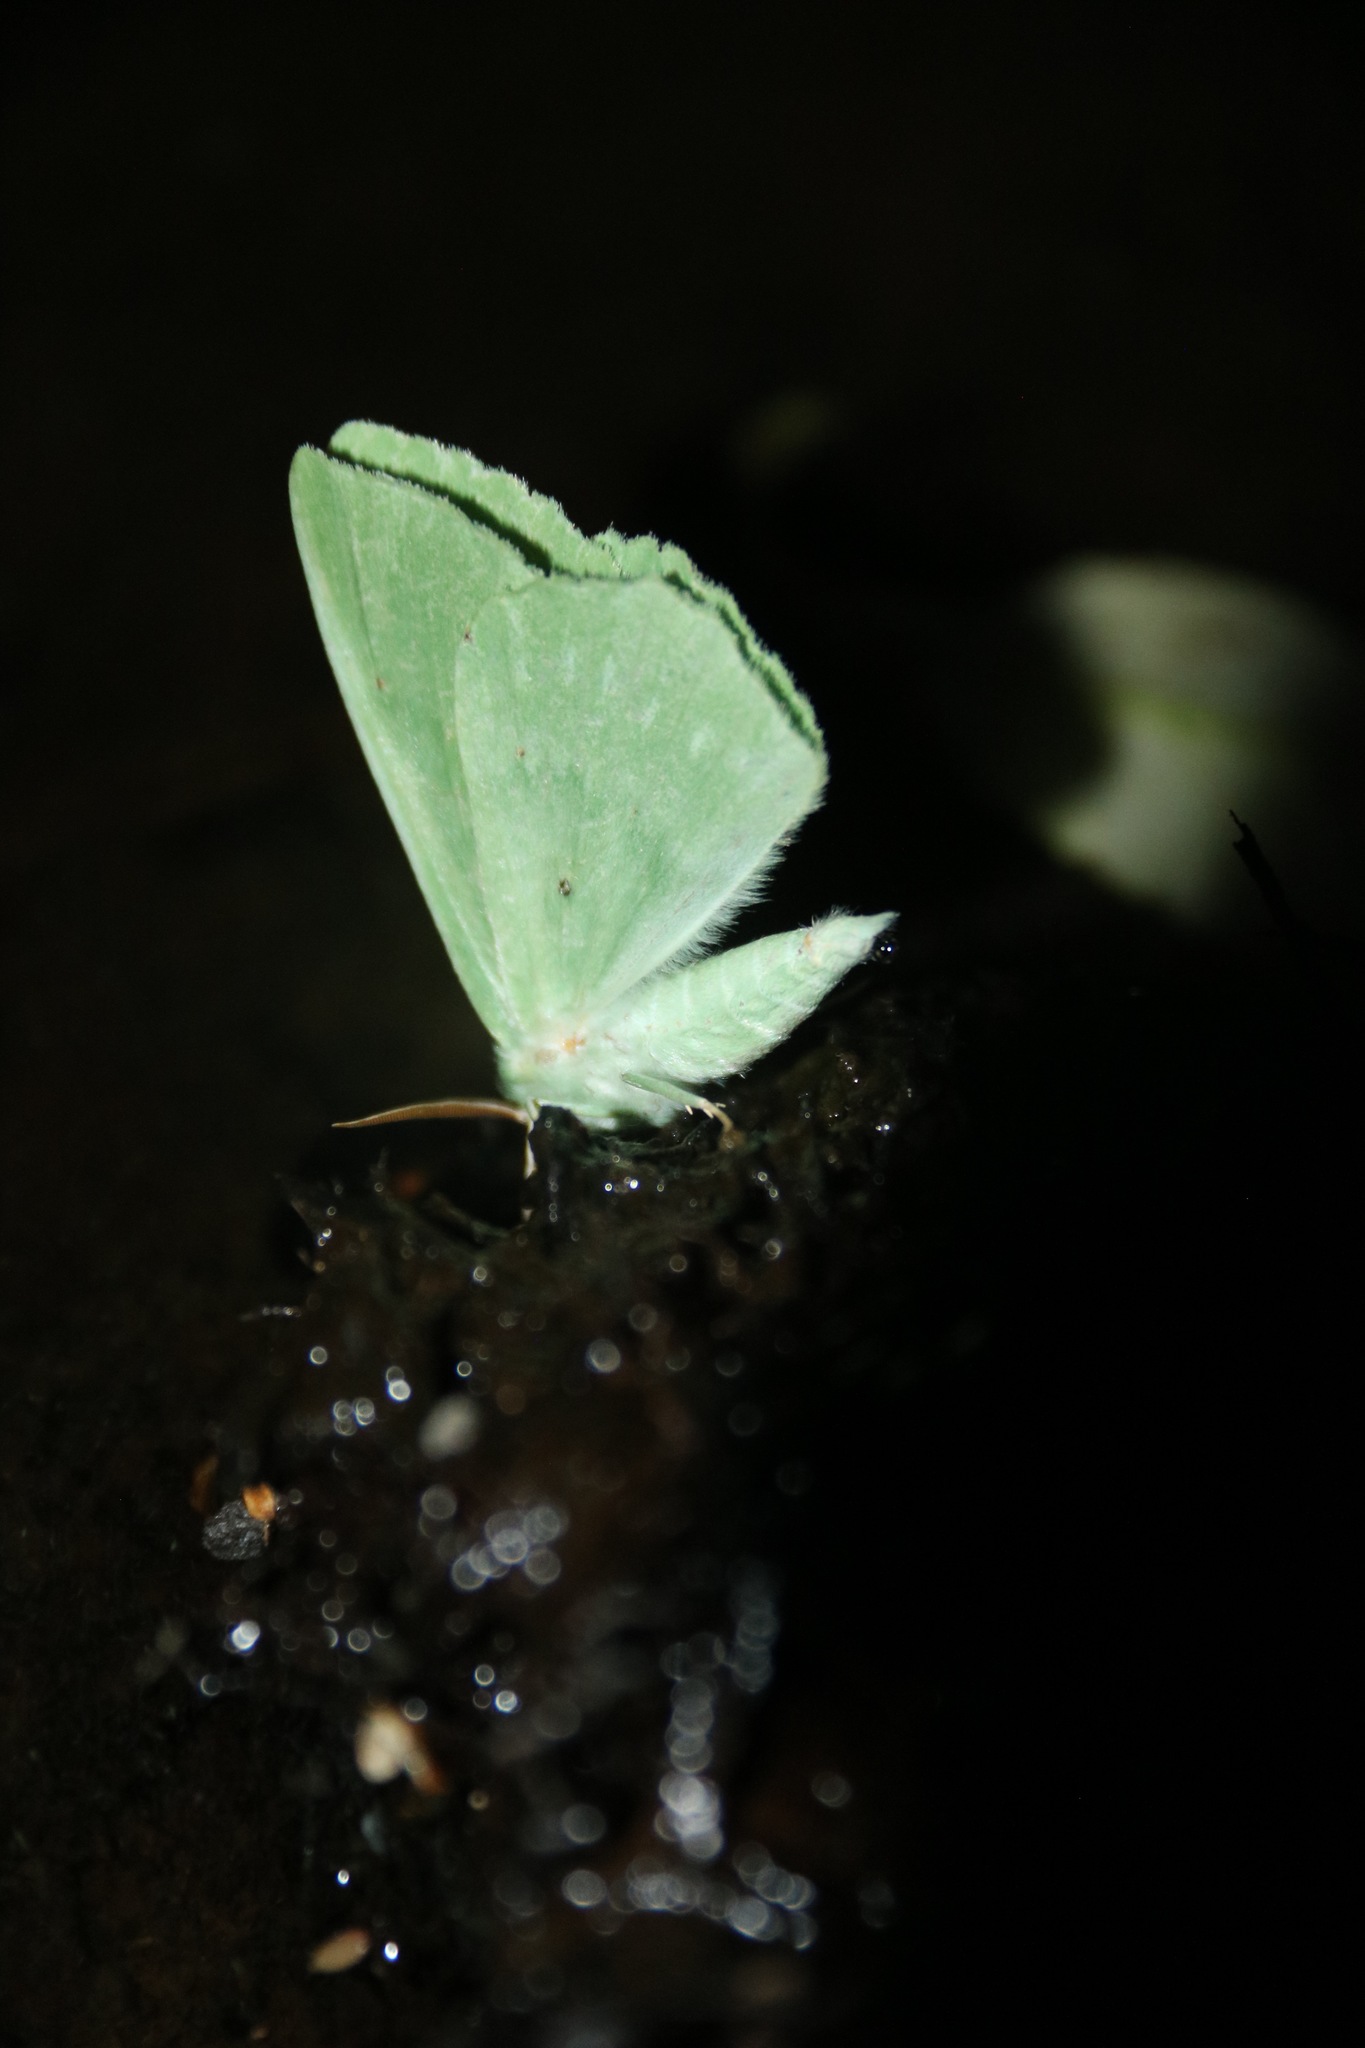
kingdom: Animalia
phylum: Arthropoda
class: Insecta
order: Lepidoptera
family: Geometridae
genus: Geometra
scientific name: Geometra papilionaria
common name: Large emerald
